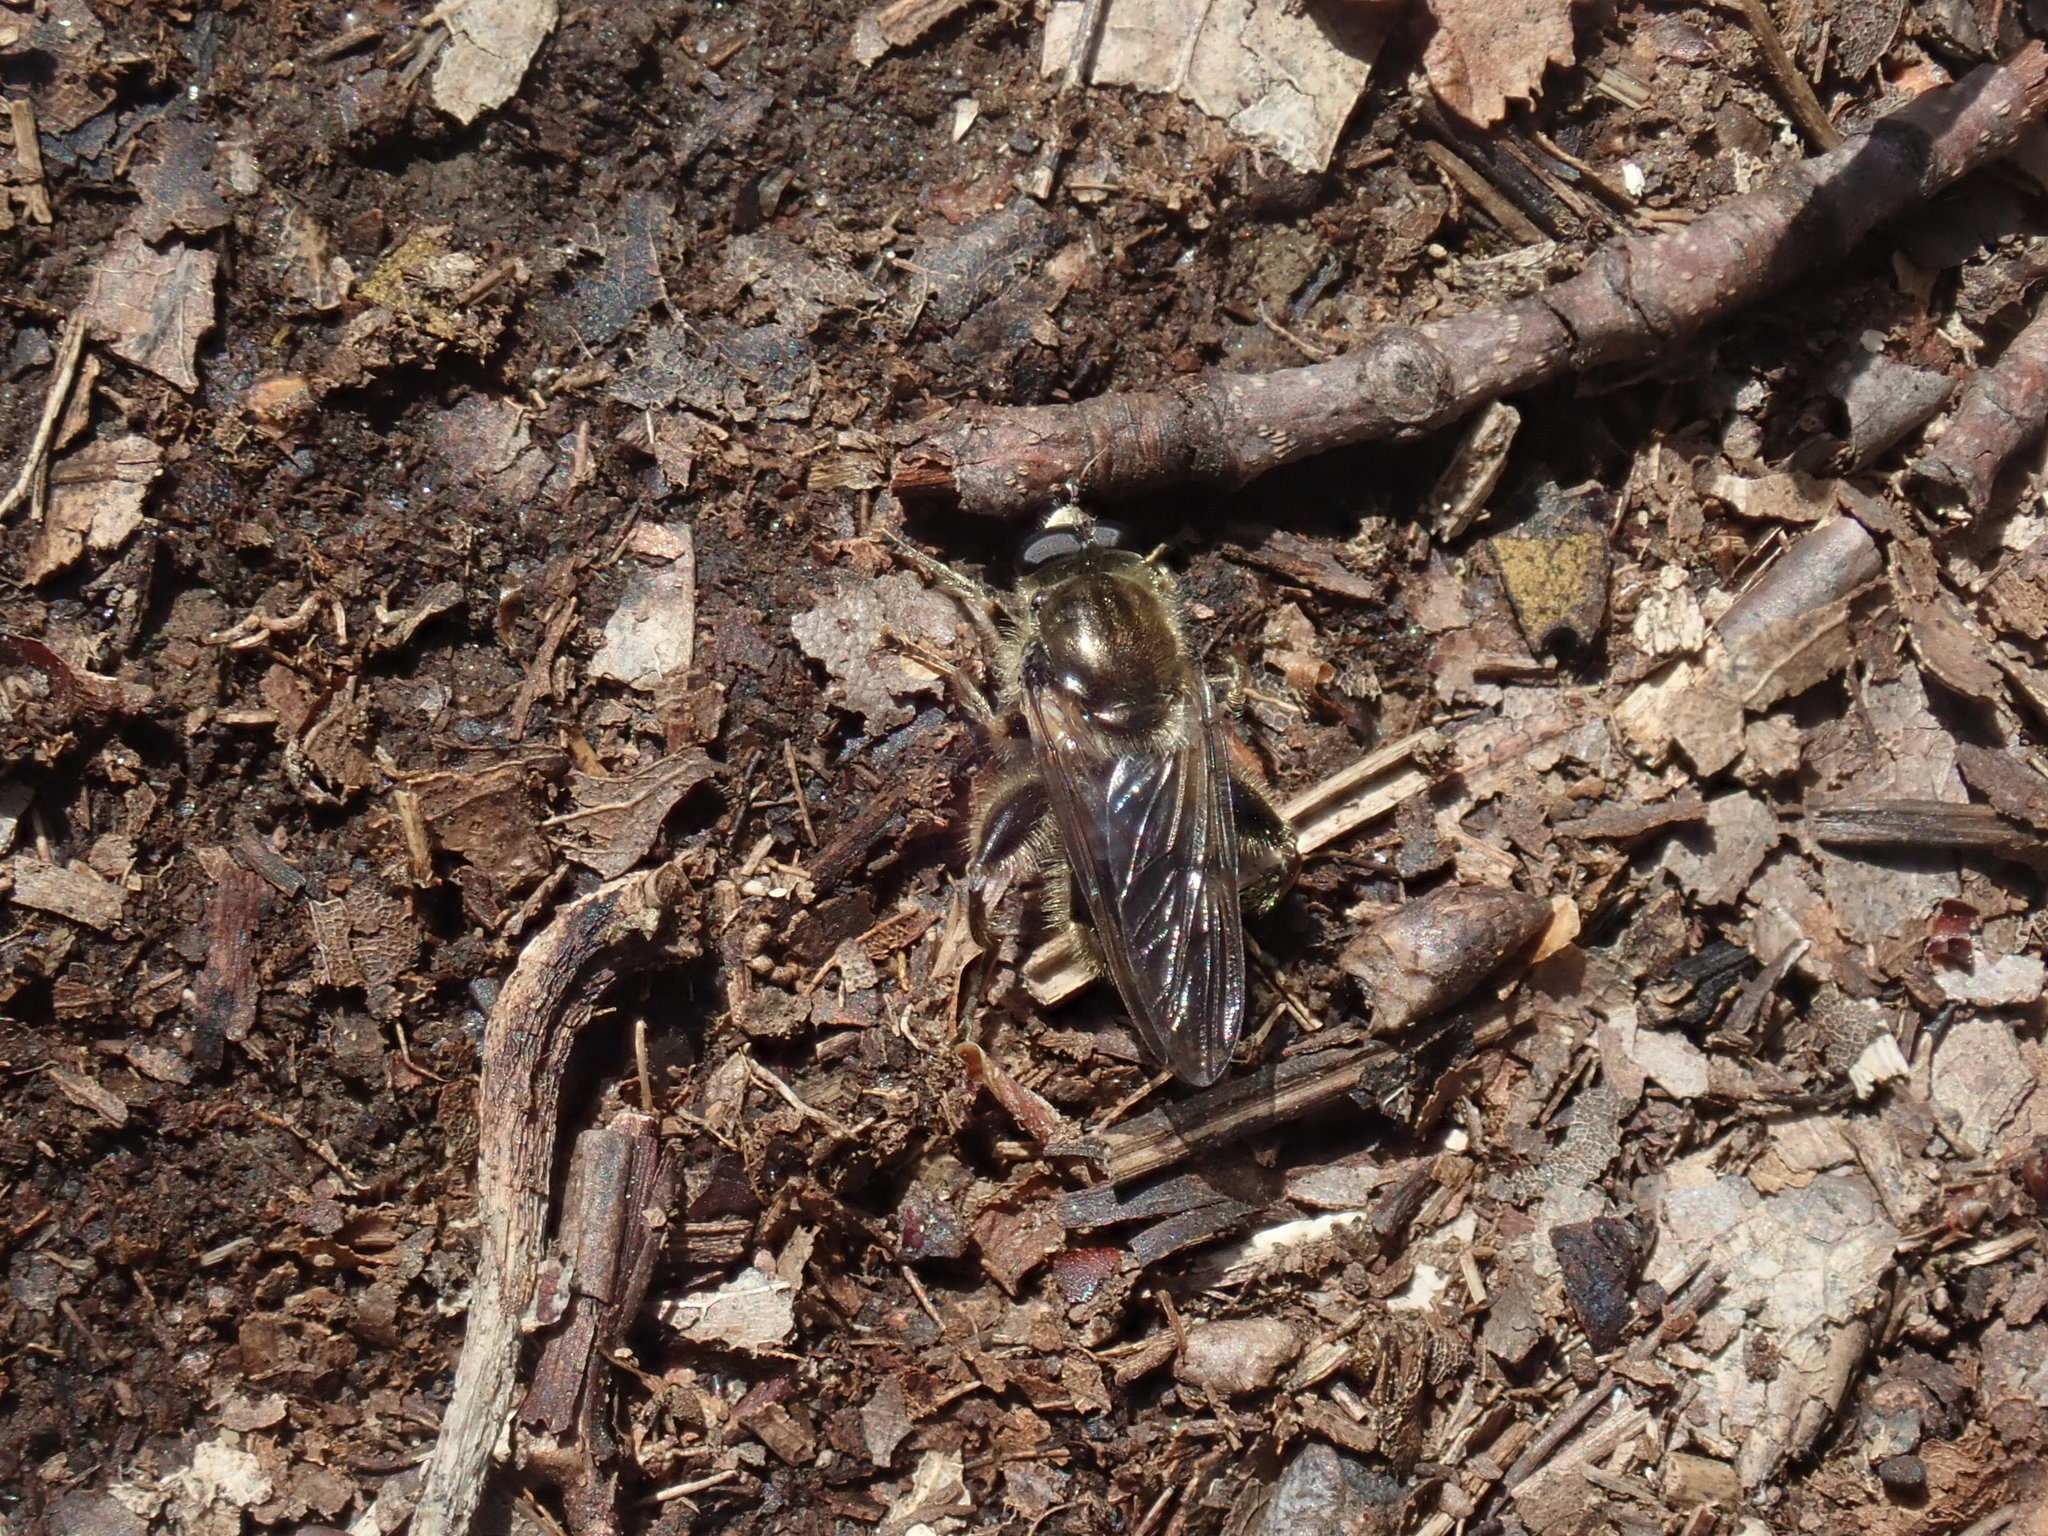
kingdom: Animalia
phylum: Arthropoda
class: Insecta
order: Diptera
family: Syrphidae
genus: Brachypalpus
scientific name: Brachypalpus oarus
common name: Eastern catkin fly
